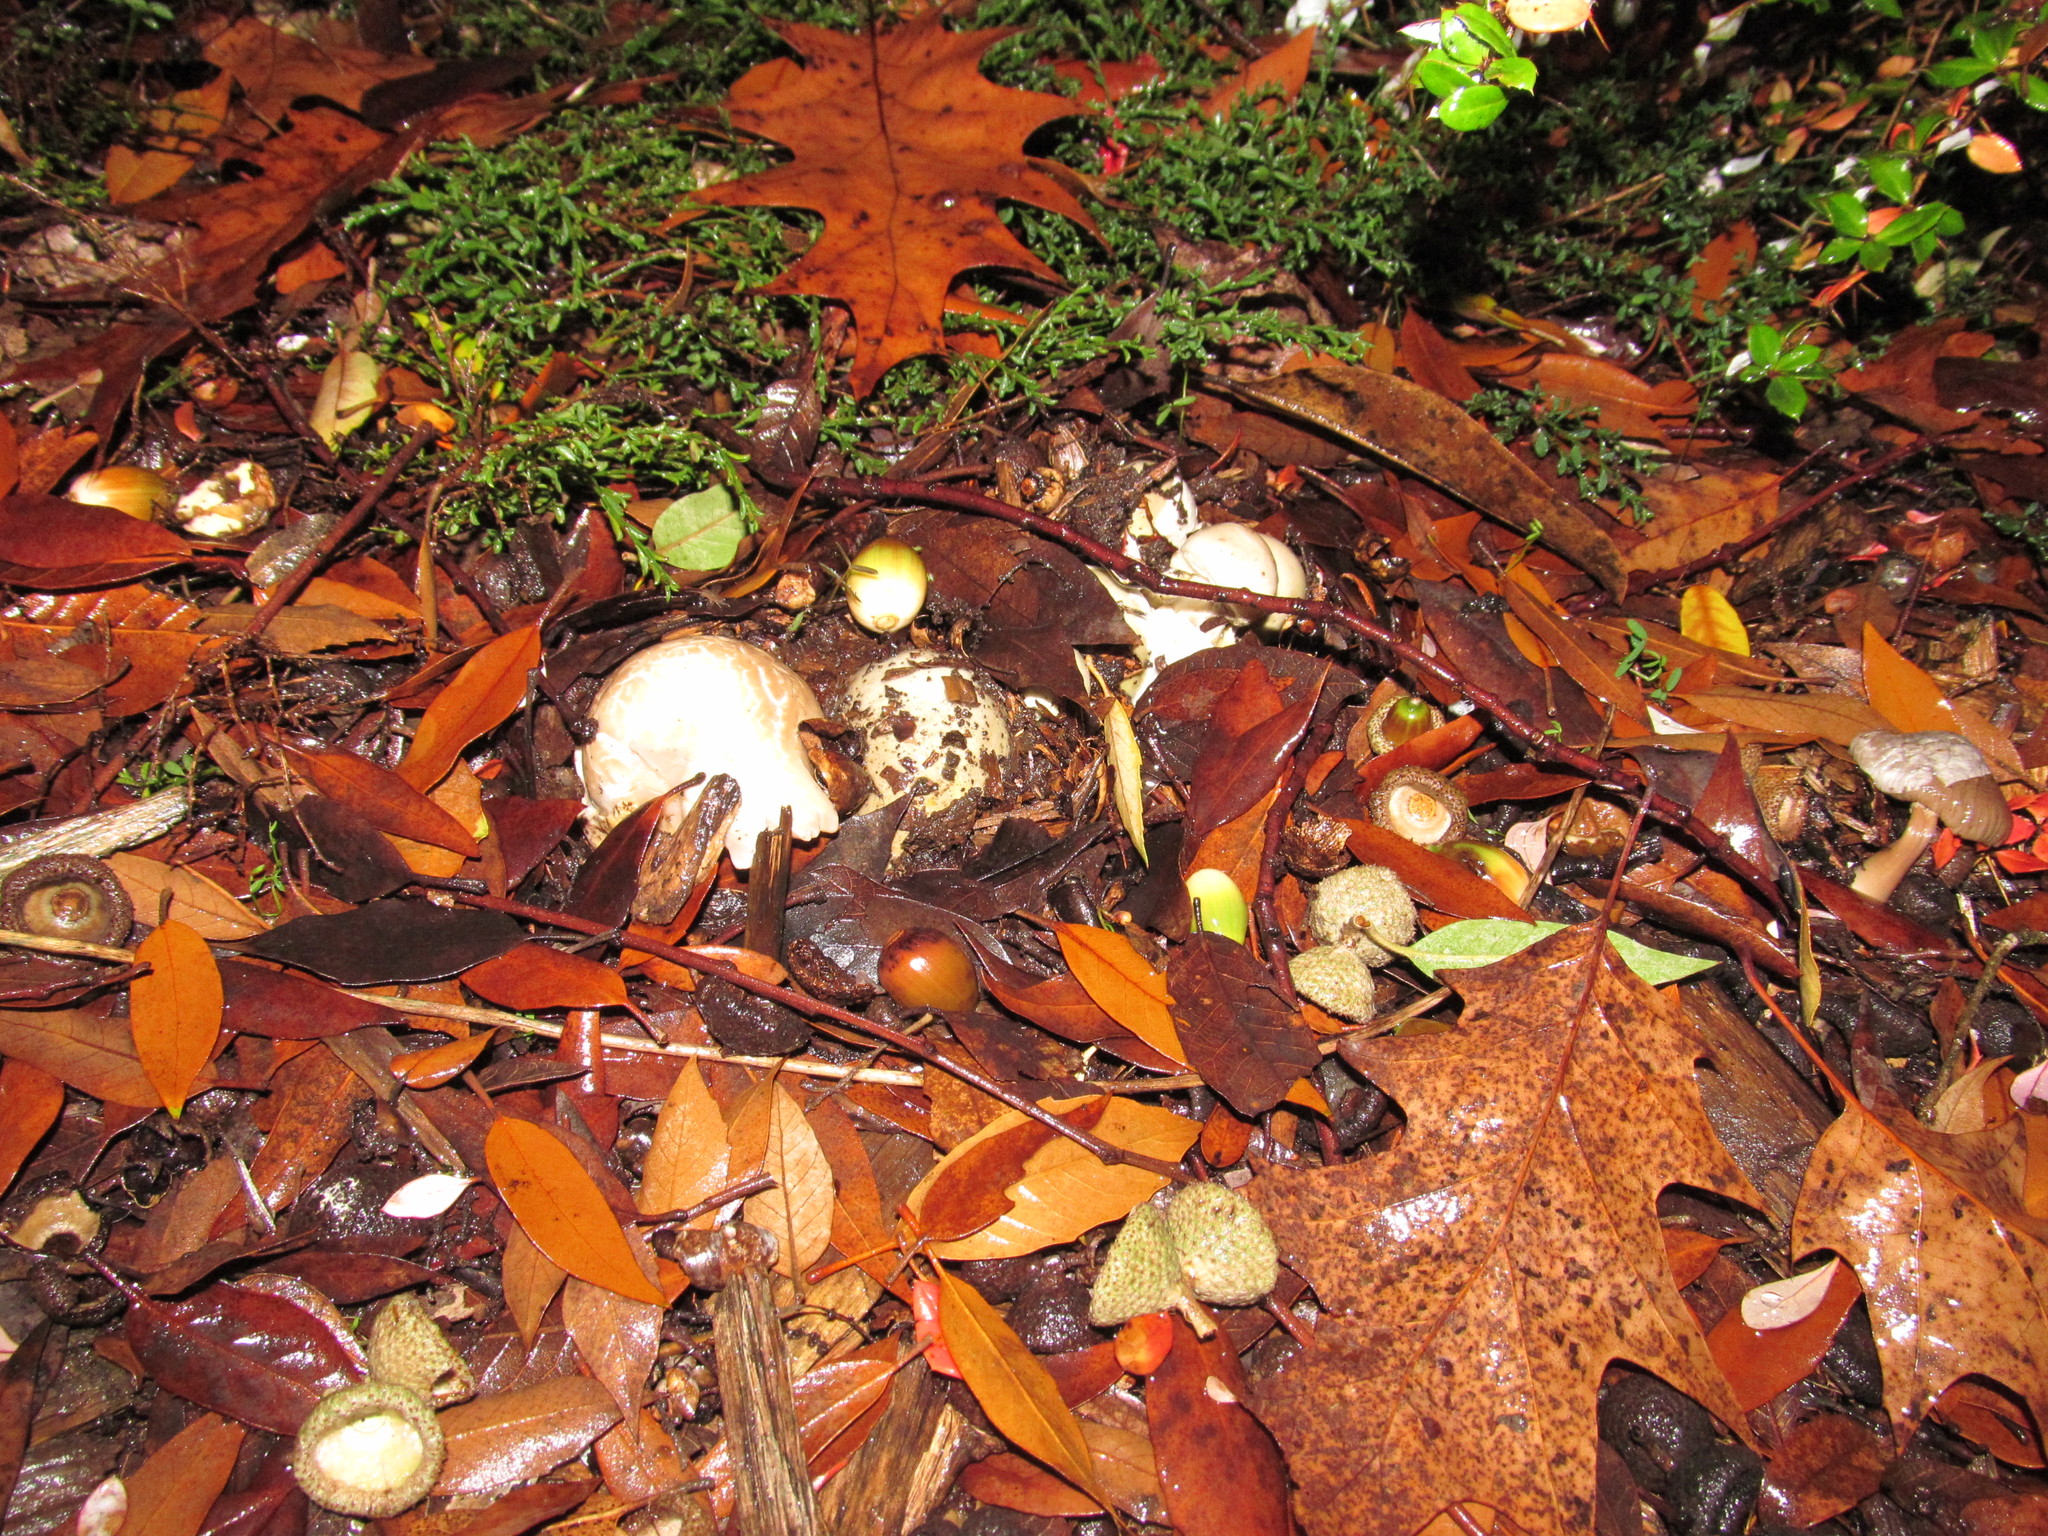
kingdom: Fungi
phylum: Basidiomycota
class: Agaricomycetes
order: Agaricales
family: Amanitaceae
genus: Amanita
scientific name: Amanita phalloides
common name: Death cap
